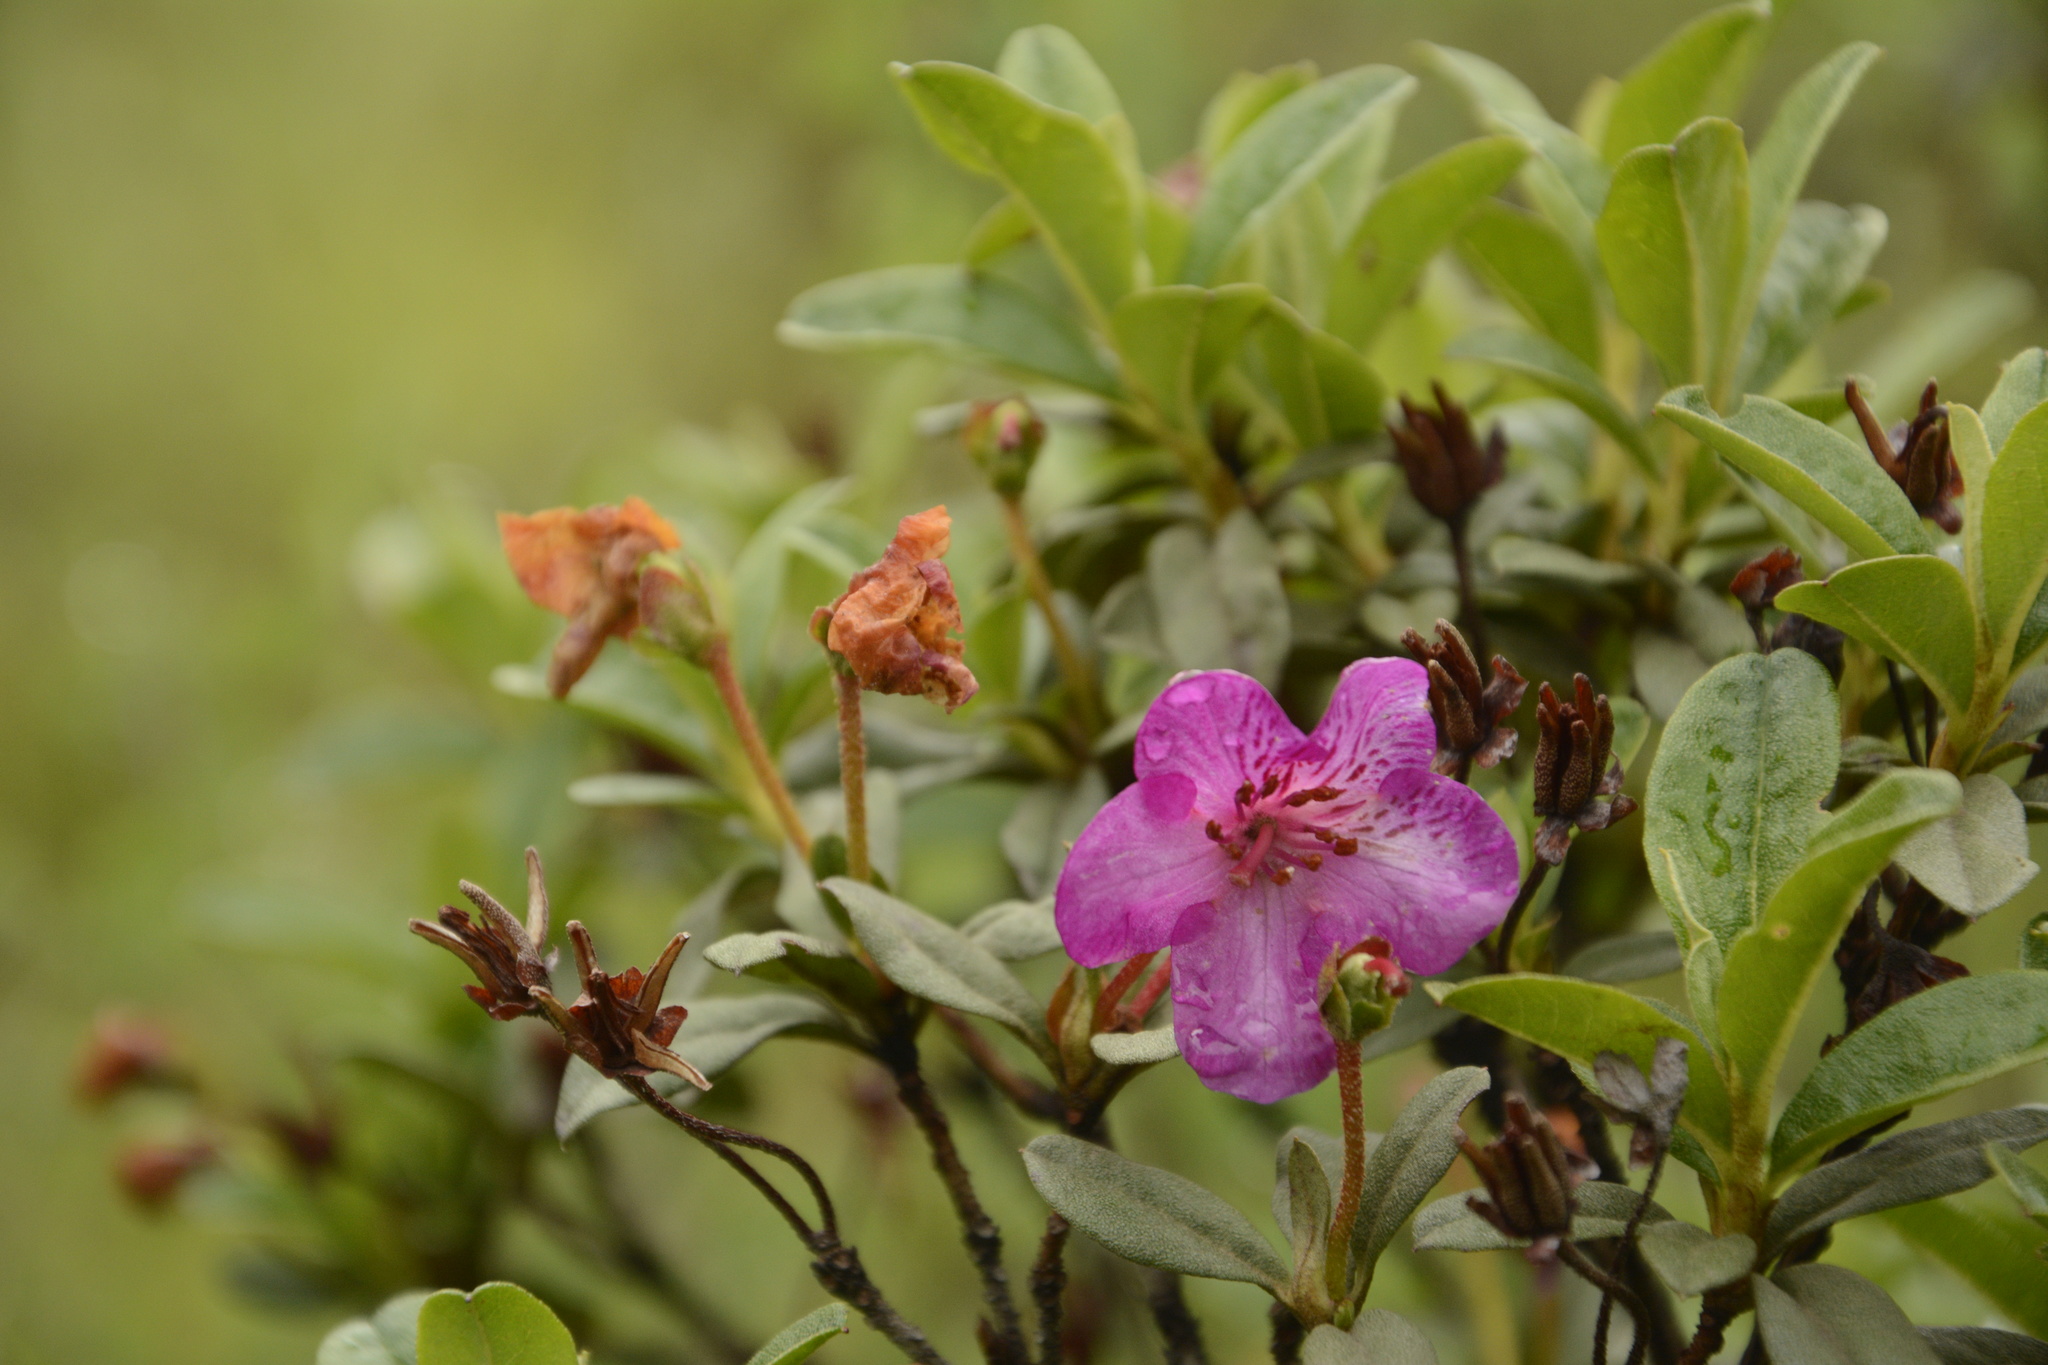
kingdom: Plantae
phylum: Tracheophyta
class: Magnoliopsida
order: Ericales
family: Ericaceae
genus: Rhododendron
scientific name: Rhododendron lepidotum
